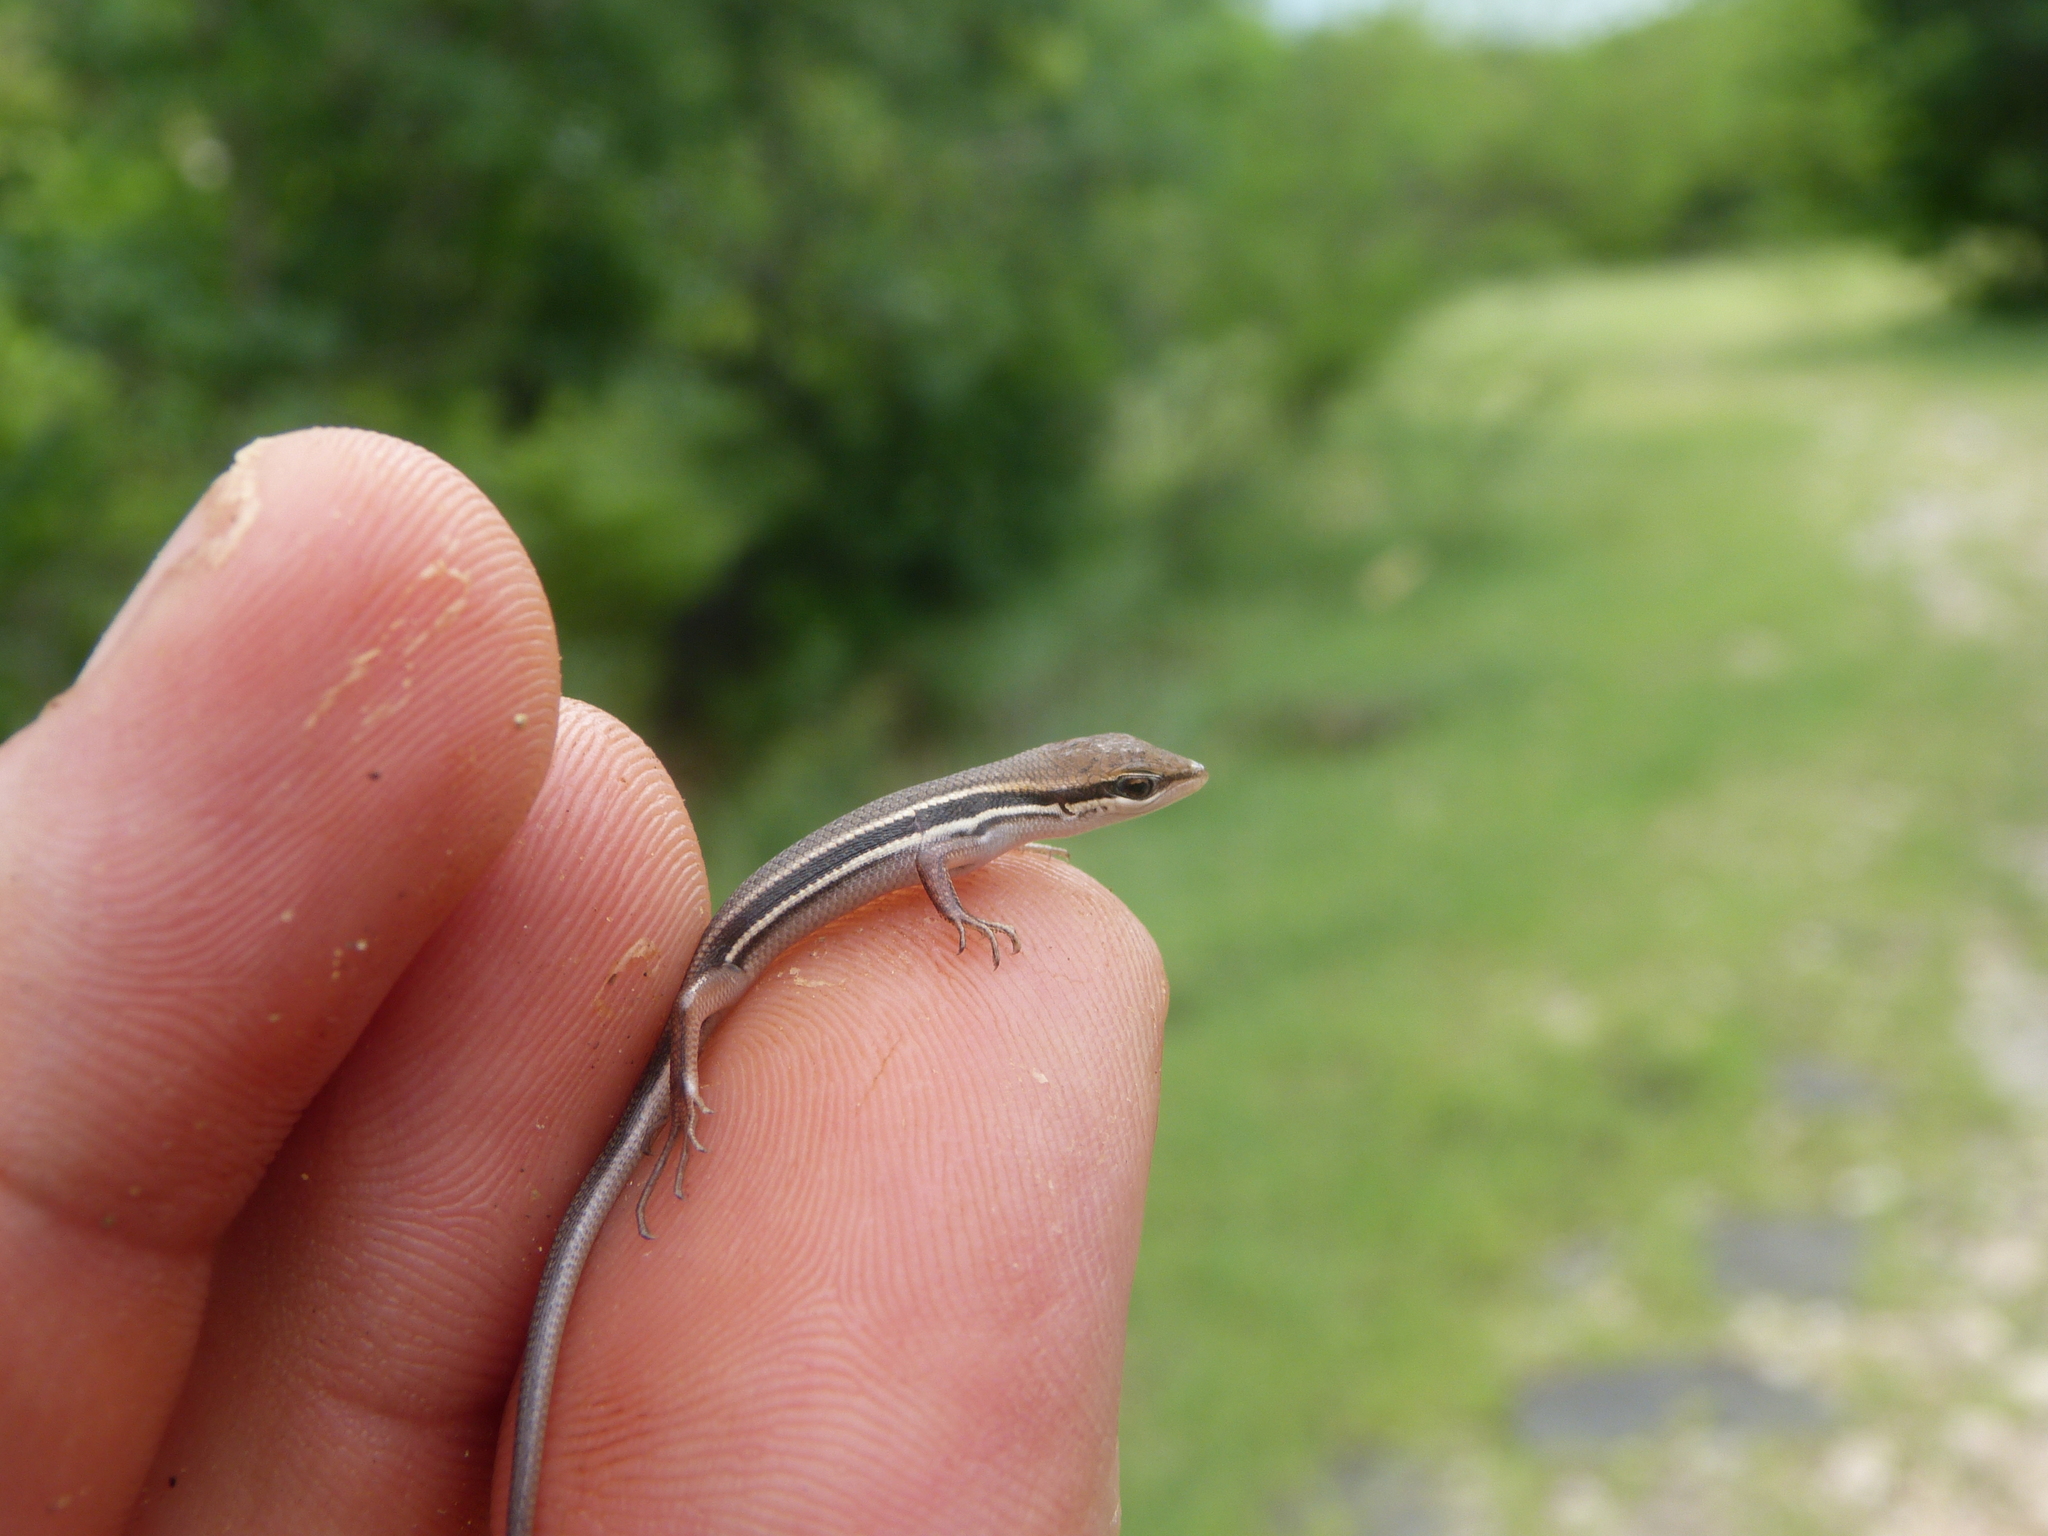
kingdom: Animalia
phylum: Chordata
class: Squamata
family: Scincidae
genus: Trachylepis
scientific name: Trachylepis gravenhorstii
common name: Gravenhorst's mabuya
